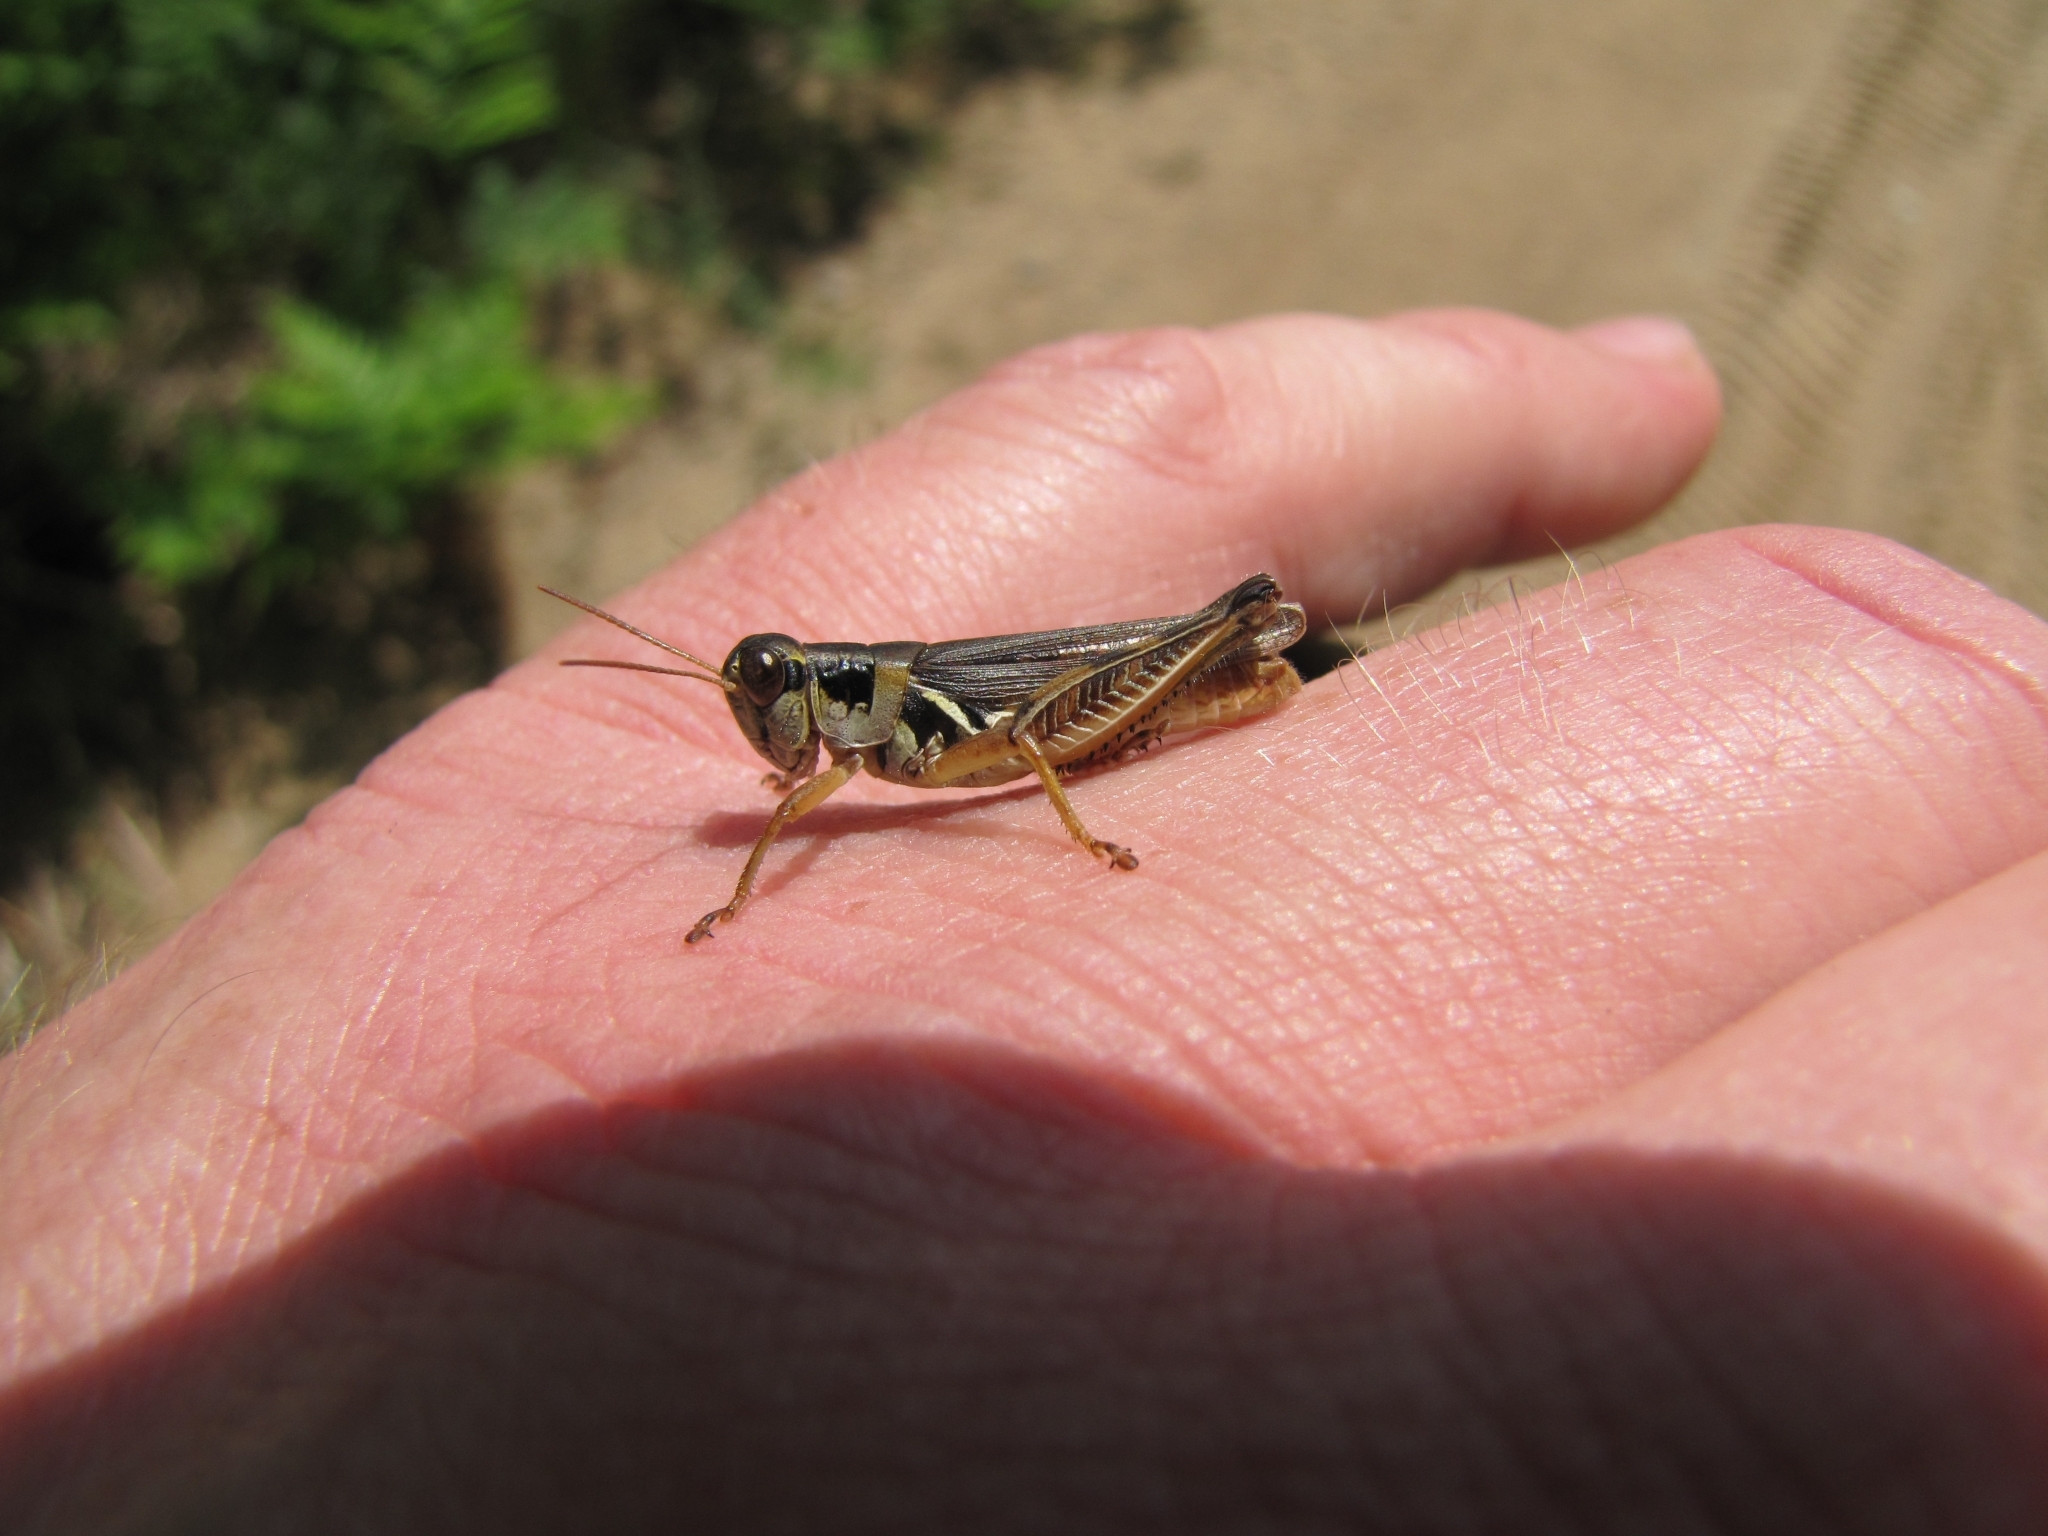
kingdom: Animalia
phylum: Arthropoda
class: Insecta
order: Orthoptera
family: Acrididae
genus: Melanoplus
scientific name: Melanoplus confusus
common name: Little pasture locust
